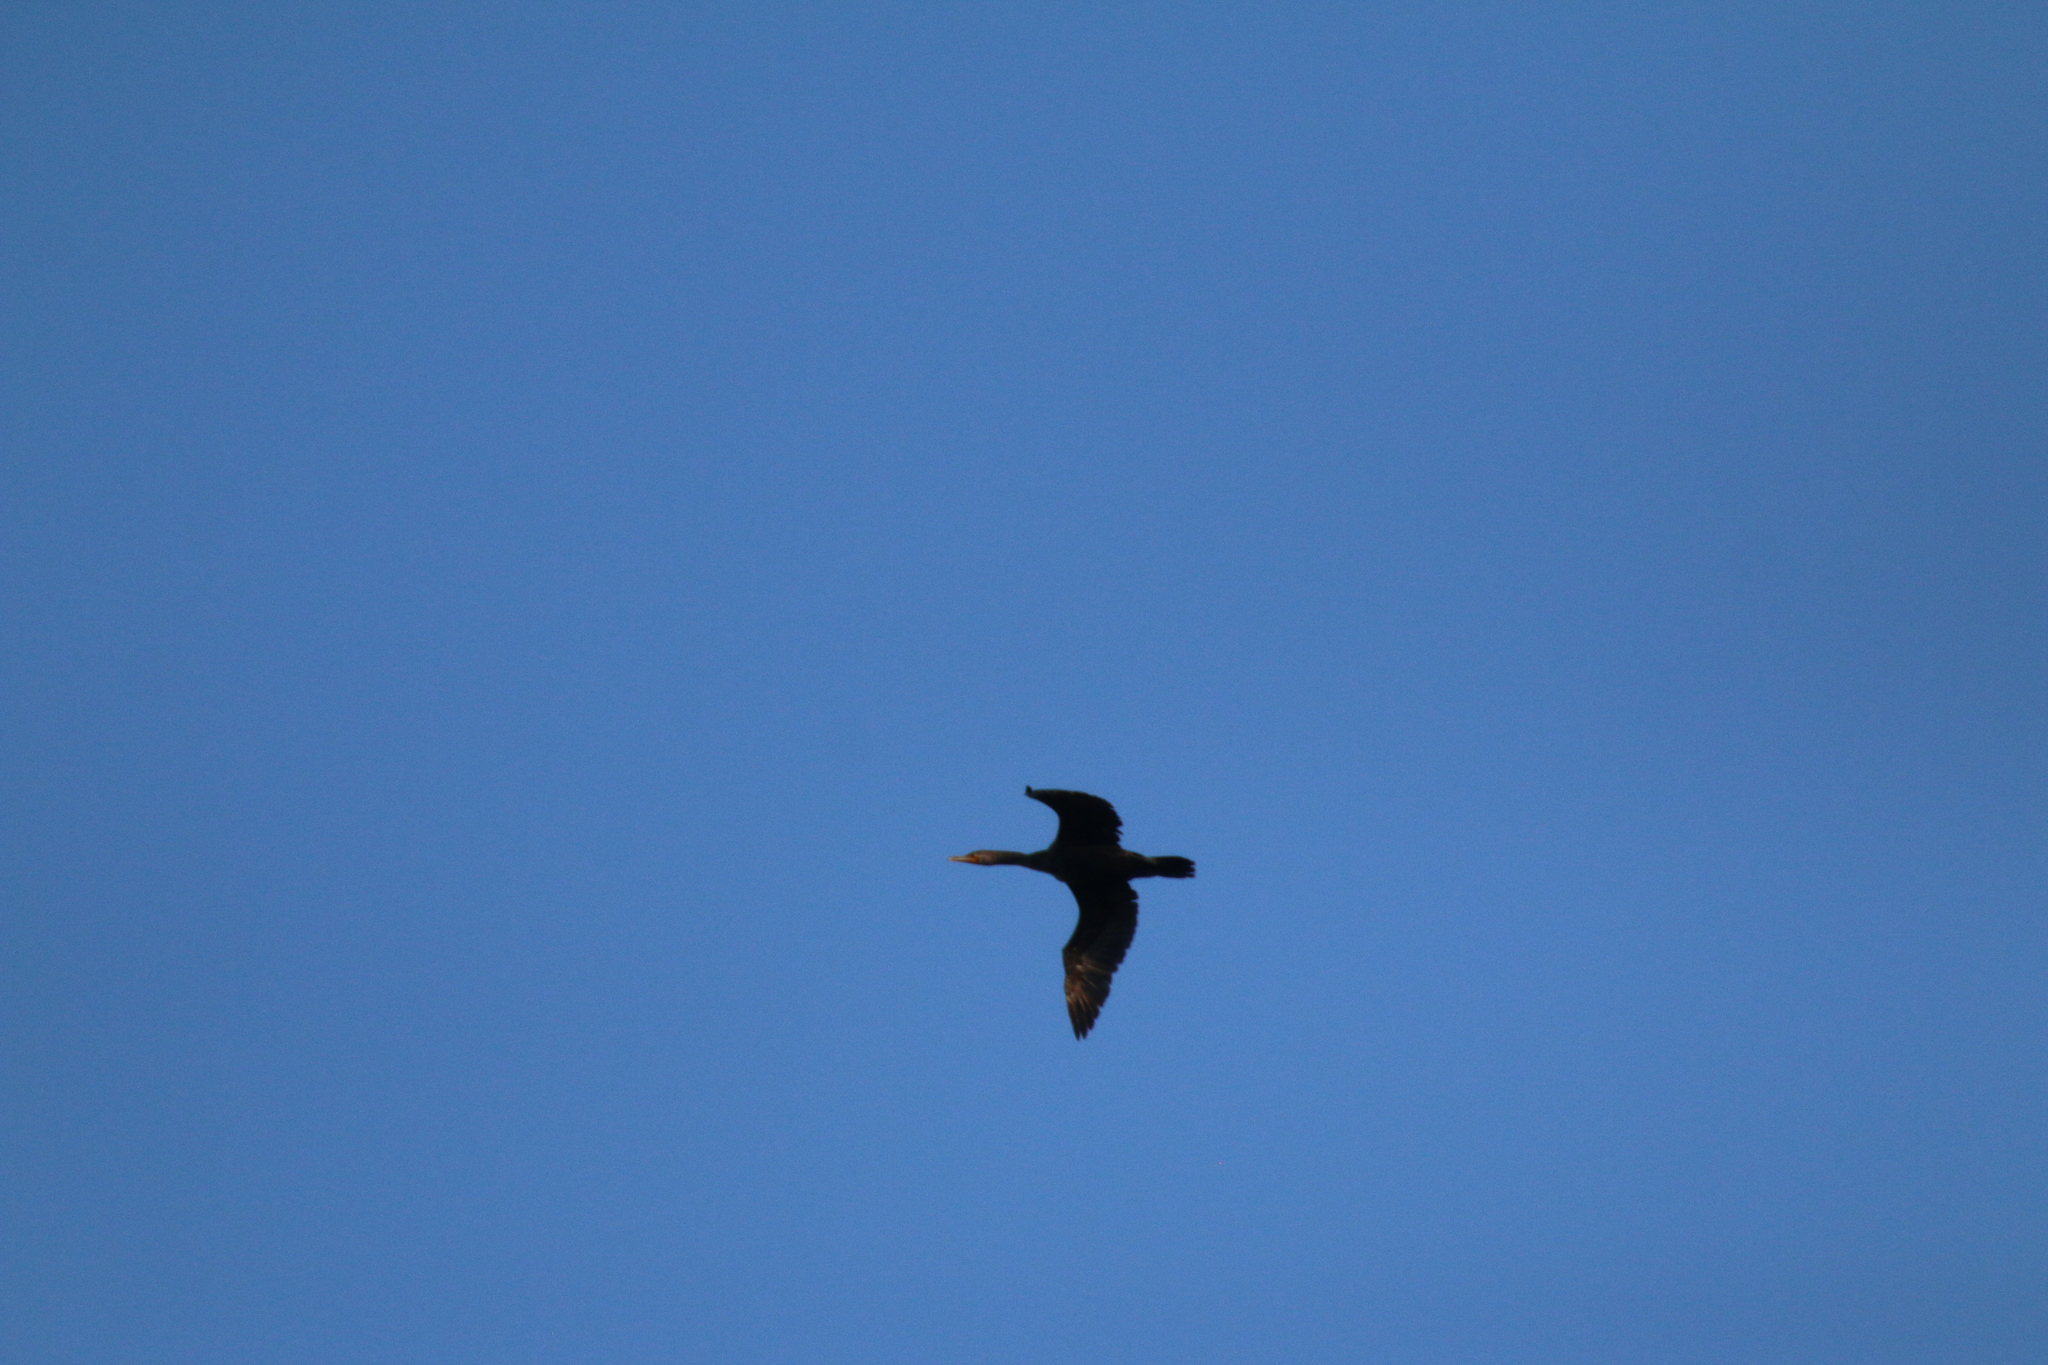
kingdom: Animalia
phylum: Chordata
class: Aves
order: Suliformes
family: Phalacrocoracidae
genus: Phalacrocorax
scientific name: Phalacrocorax auritus
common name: Double-crested cormorant
